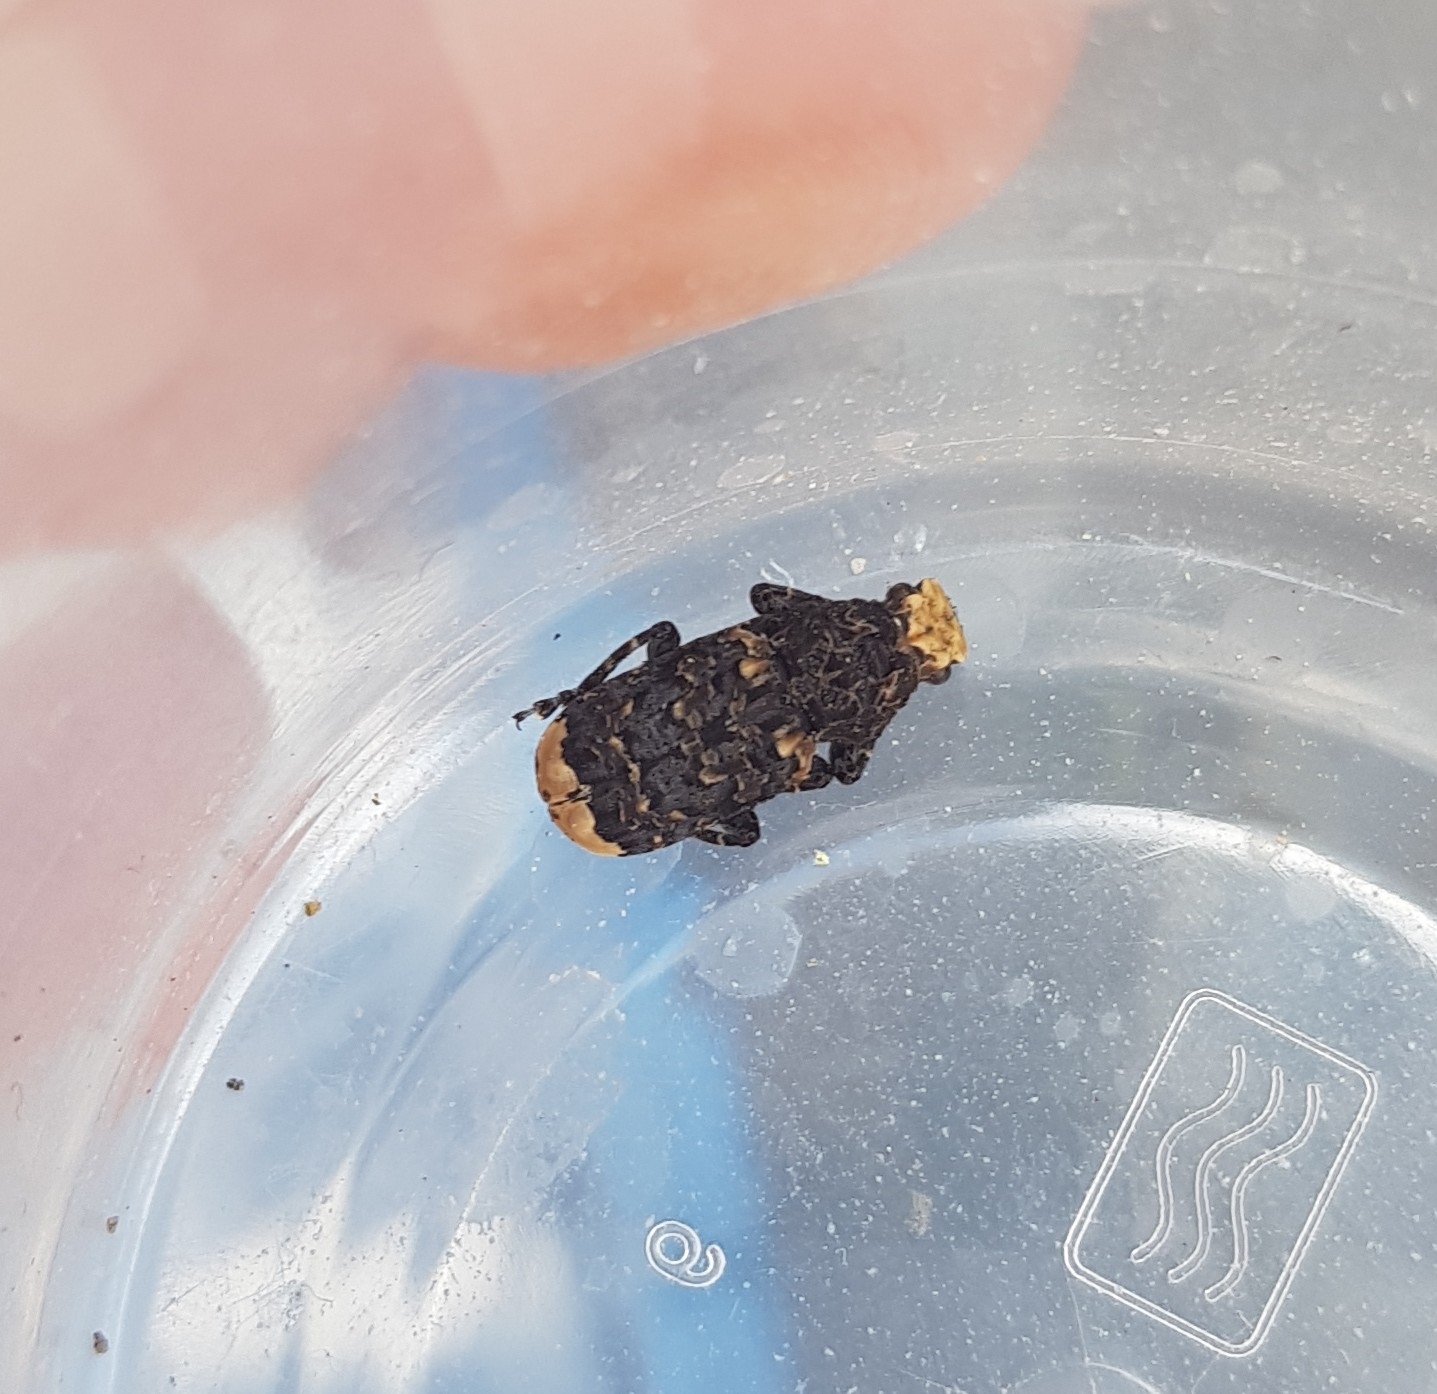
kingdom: Animalia
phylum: Arthropoda
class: Insecta
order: Coleoptera
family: Anthribidae
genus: Platyrhinus
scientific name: Platyrhinus resinosus
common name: Cramp-ball fungus weevil
